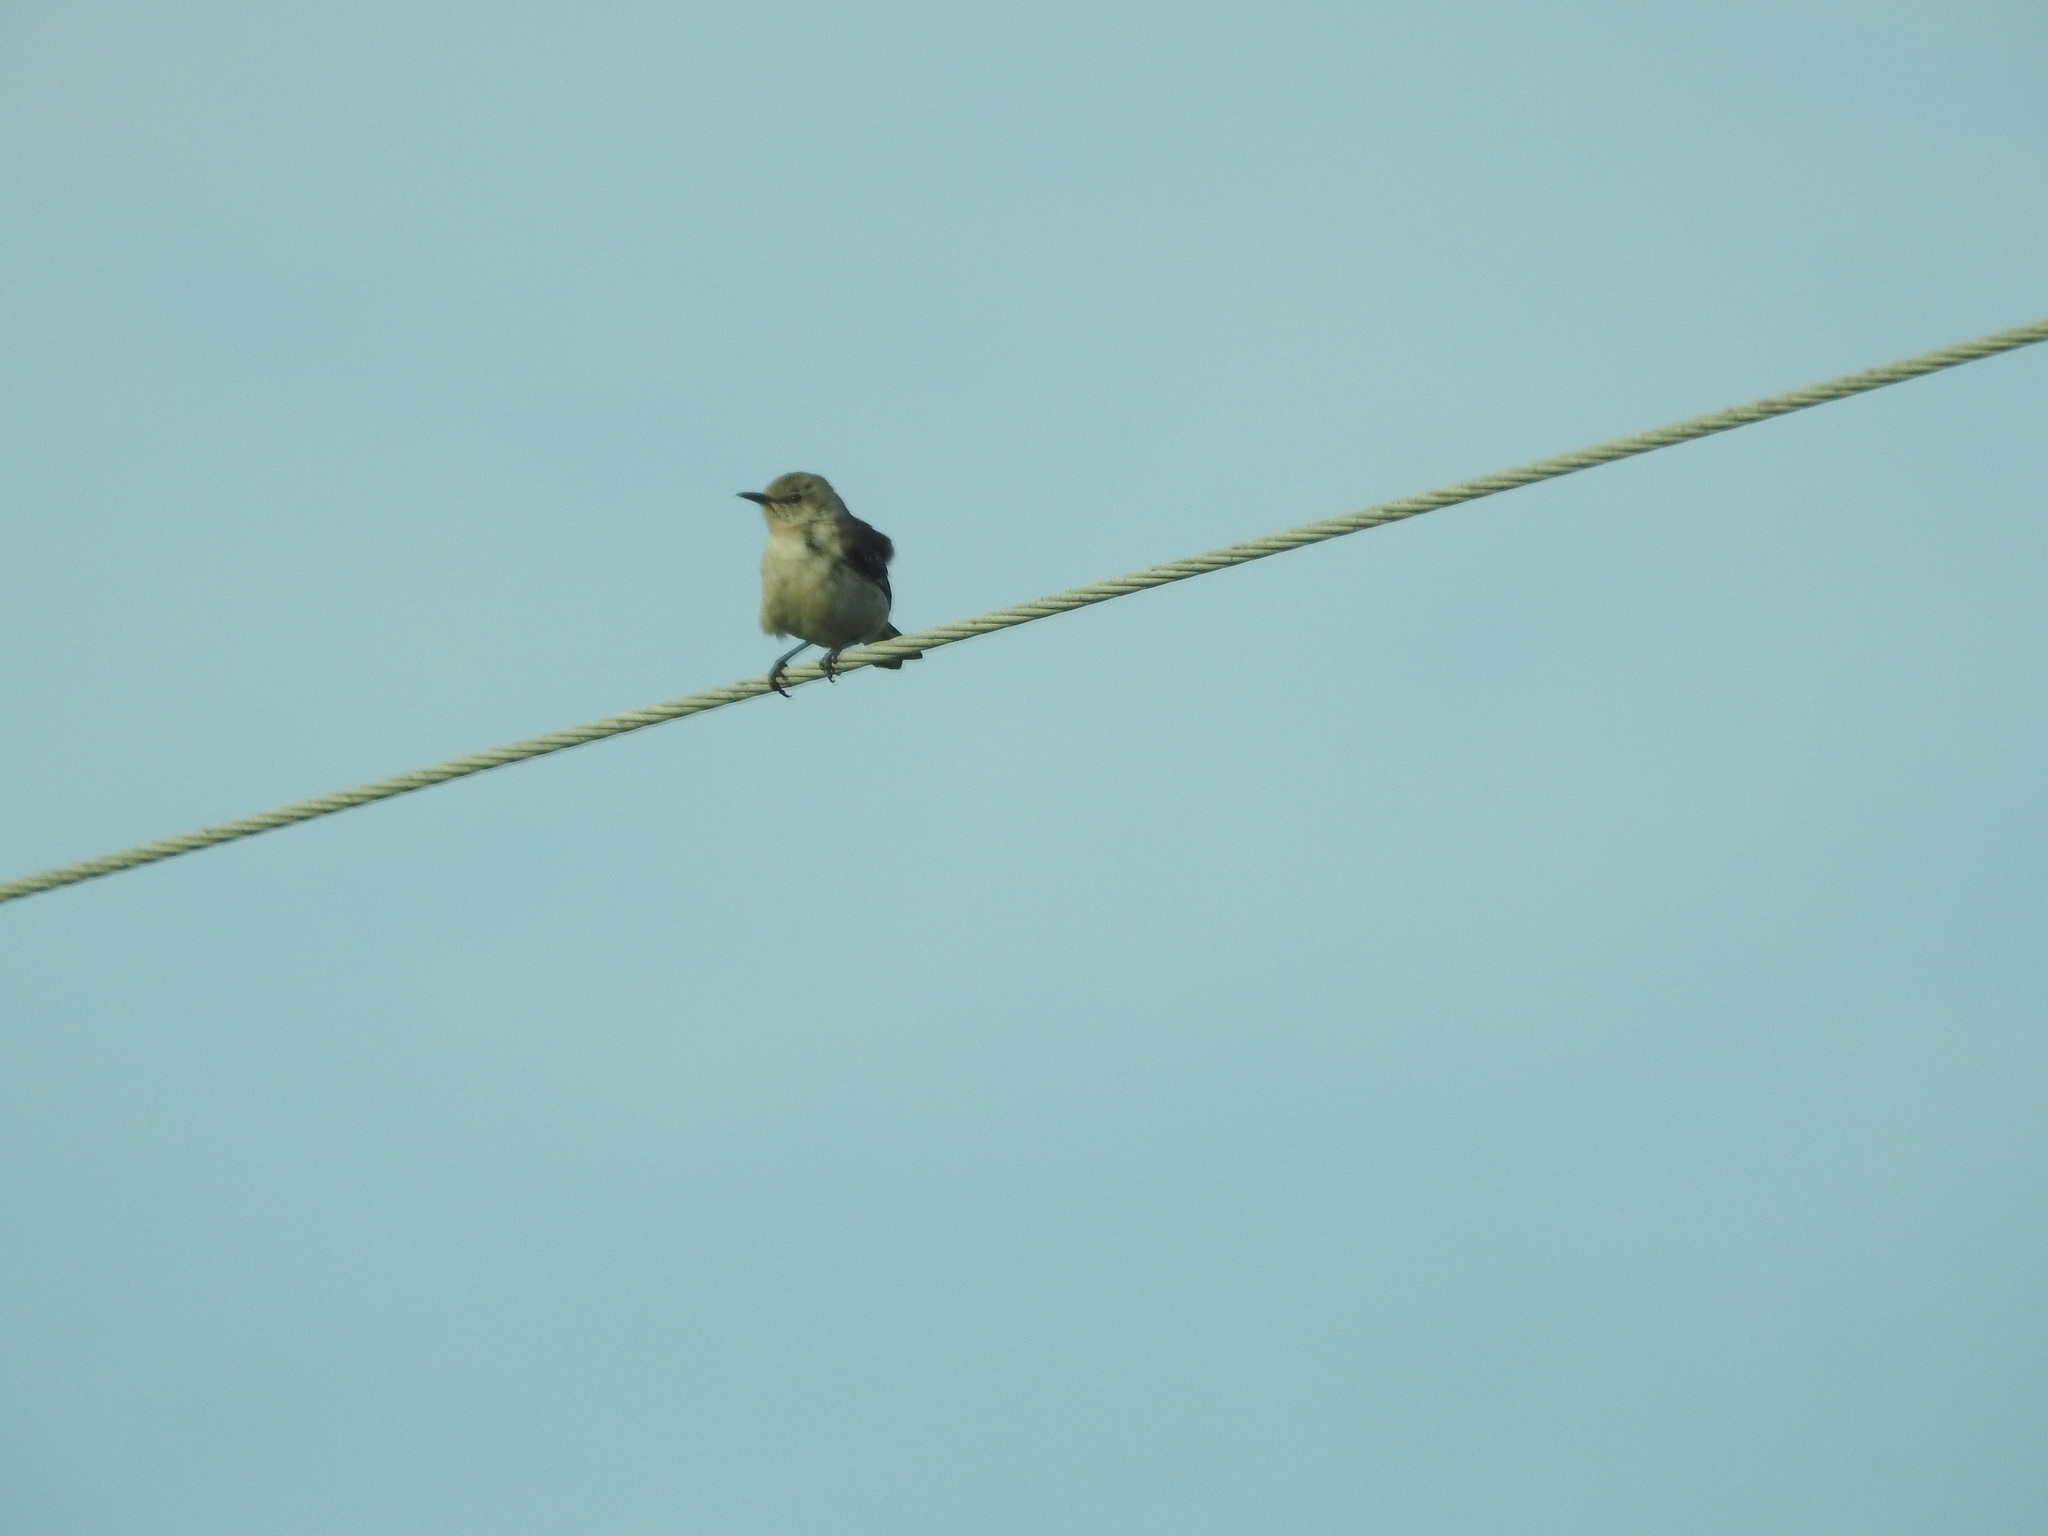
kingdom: Animalia
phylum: Chordata
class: Aves
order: Passeriformes
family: Mimidae
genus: Mimus
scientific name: Mimus polyglottos
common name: Northern mockingbird
